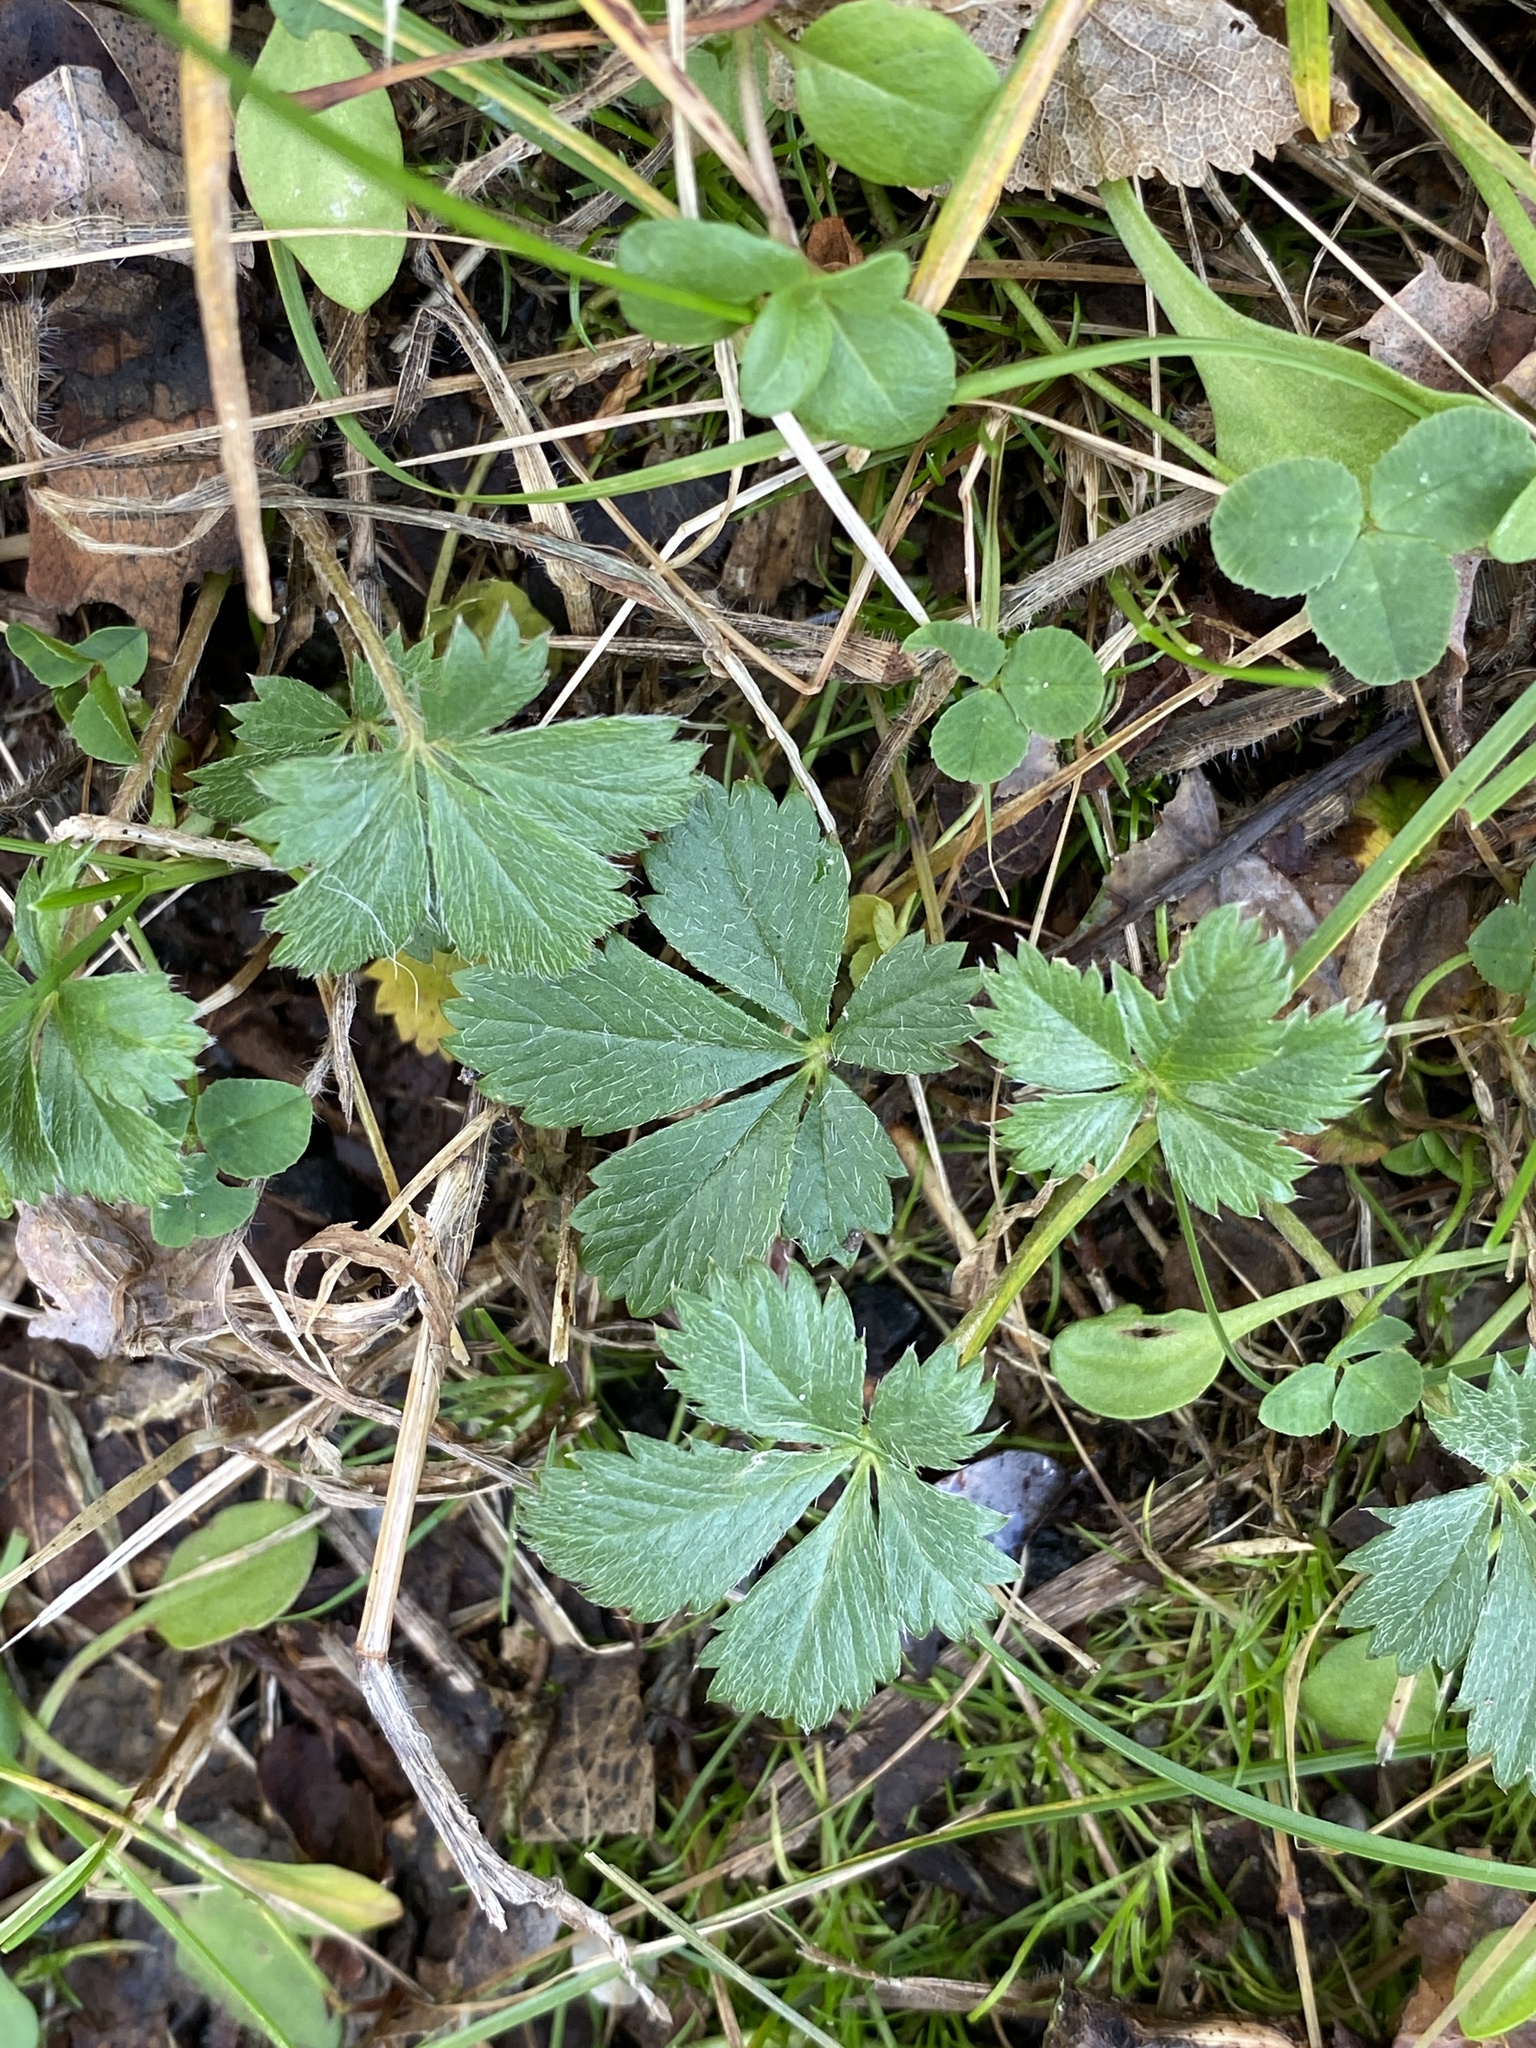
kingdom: Plantae
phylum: Tracheophyta
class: Magnoliopsida
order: Rosales
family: Rosaceae
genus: Potentilla
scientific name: Potentilla canadensis
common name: Canada cinquefoil
